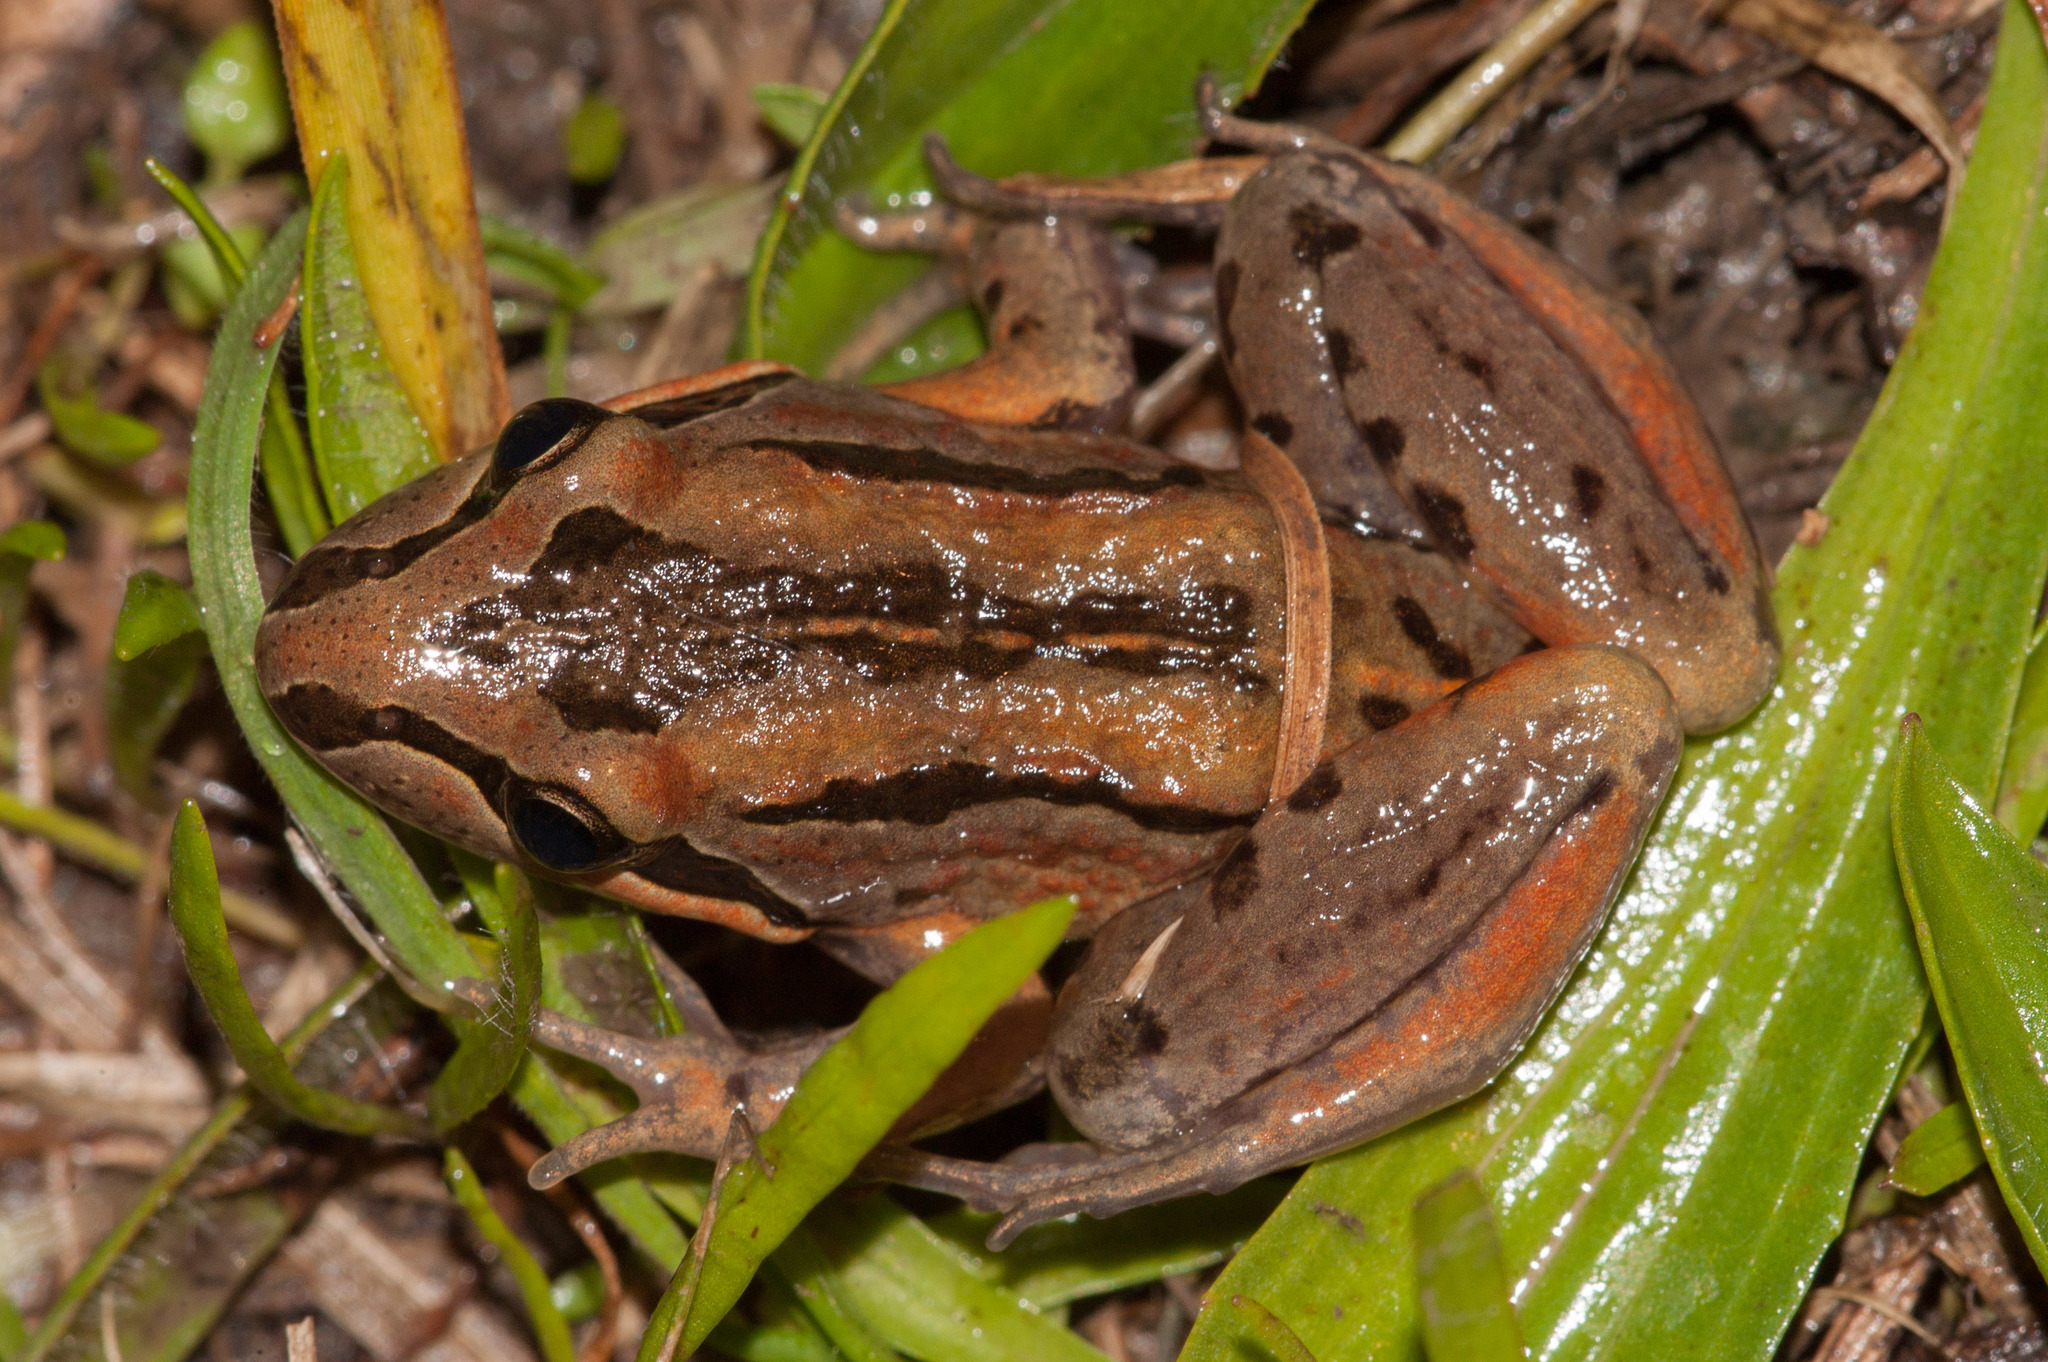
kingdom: Animalia
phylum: Chordata
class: Amphibia
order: Anura
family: Limnodynastidae
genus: Limnodynastes
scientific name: Limnodynastes peronii
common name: Brown frog
